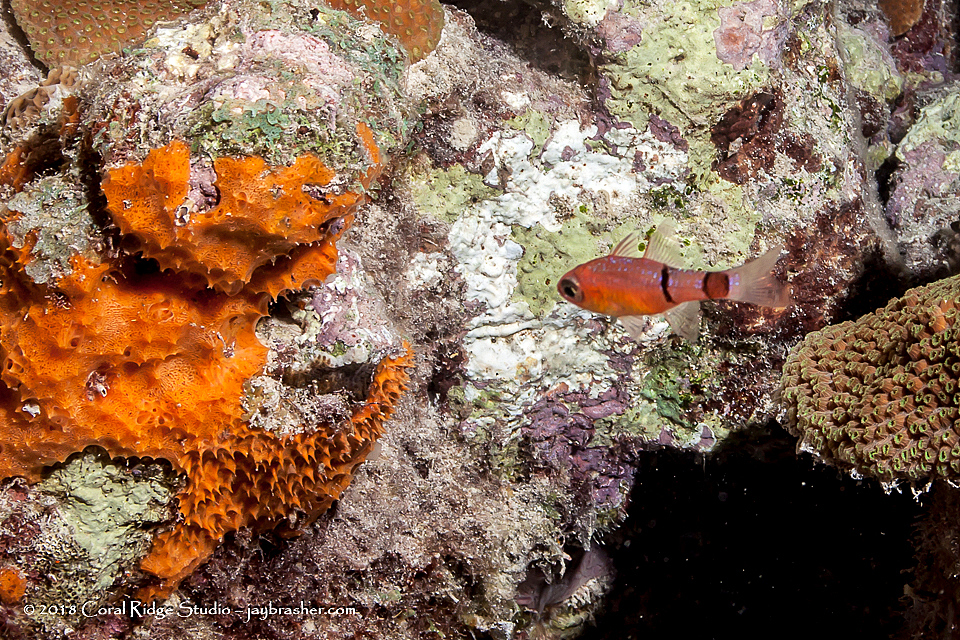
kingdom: Animalia
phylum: Chordata
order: Perciformes
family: Apogonidae
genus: Apogon
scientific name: Apogon townsendi
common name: Belted cardinalfish
